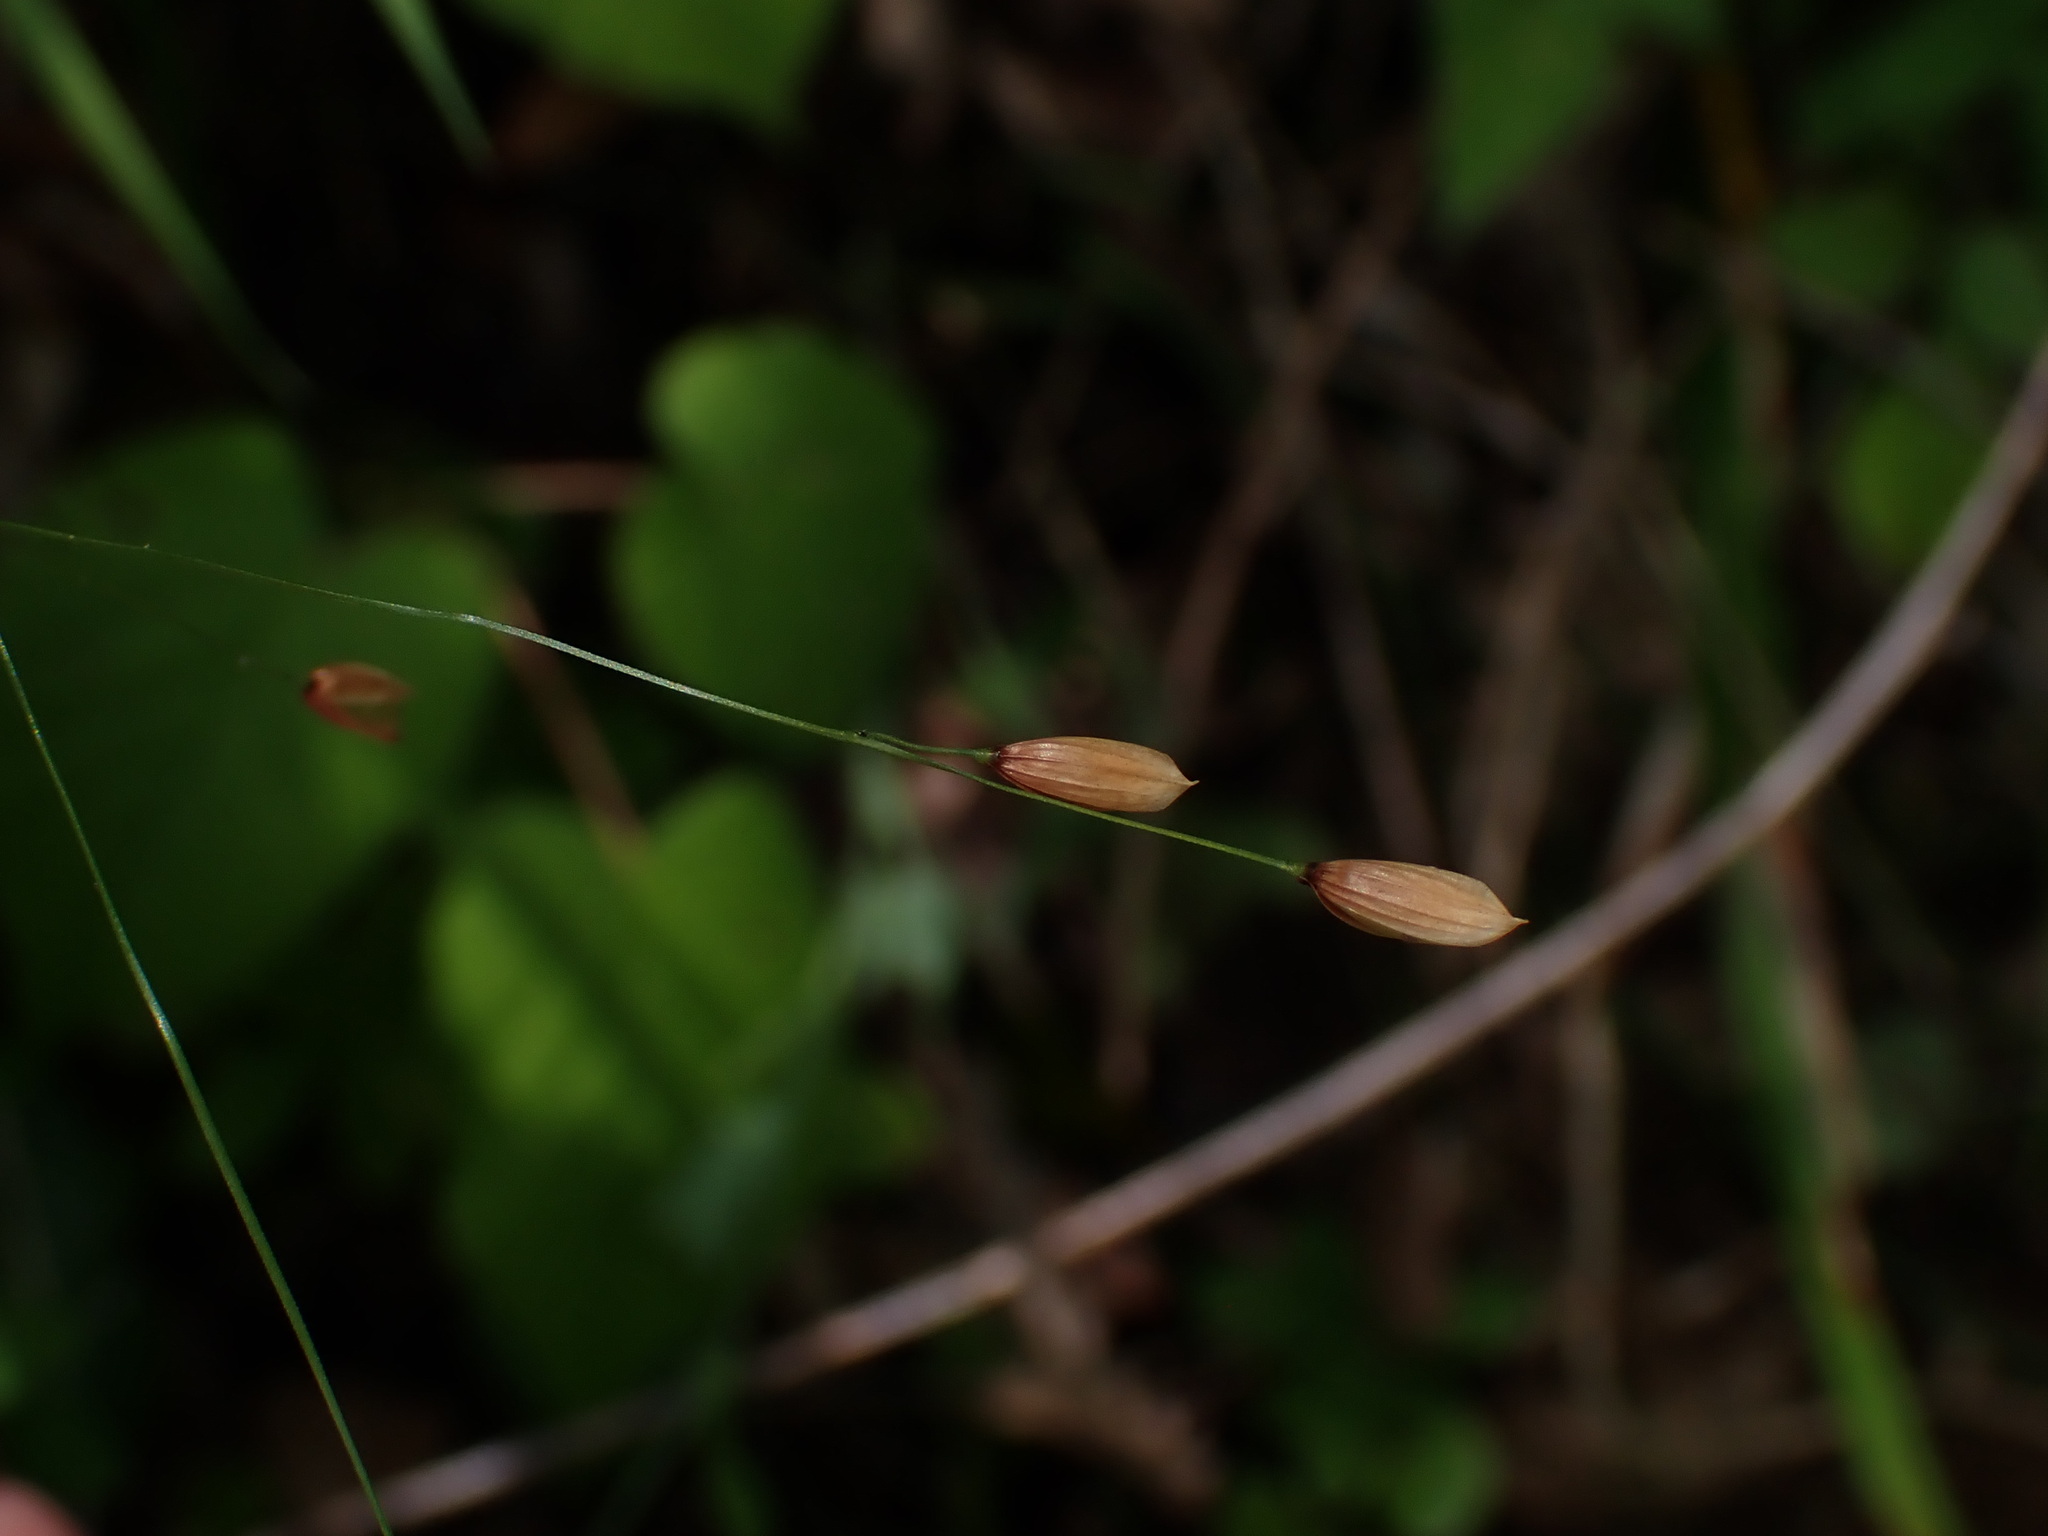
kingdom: Plantae
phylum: Tracheophyta
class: Liliopsida
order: Poales
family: Poaceae
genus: Melica
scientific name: Melica uniflora
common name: Wood melick
